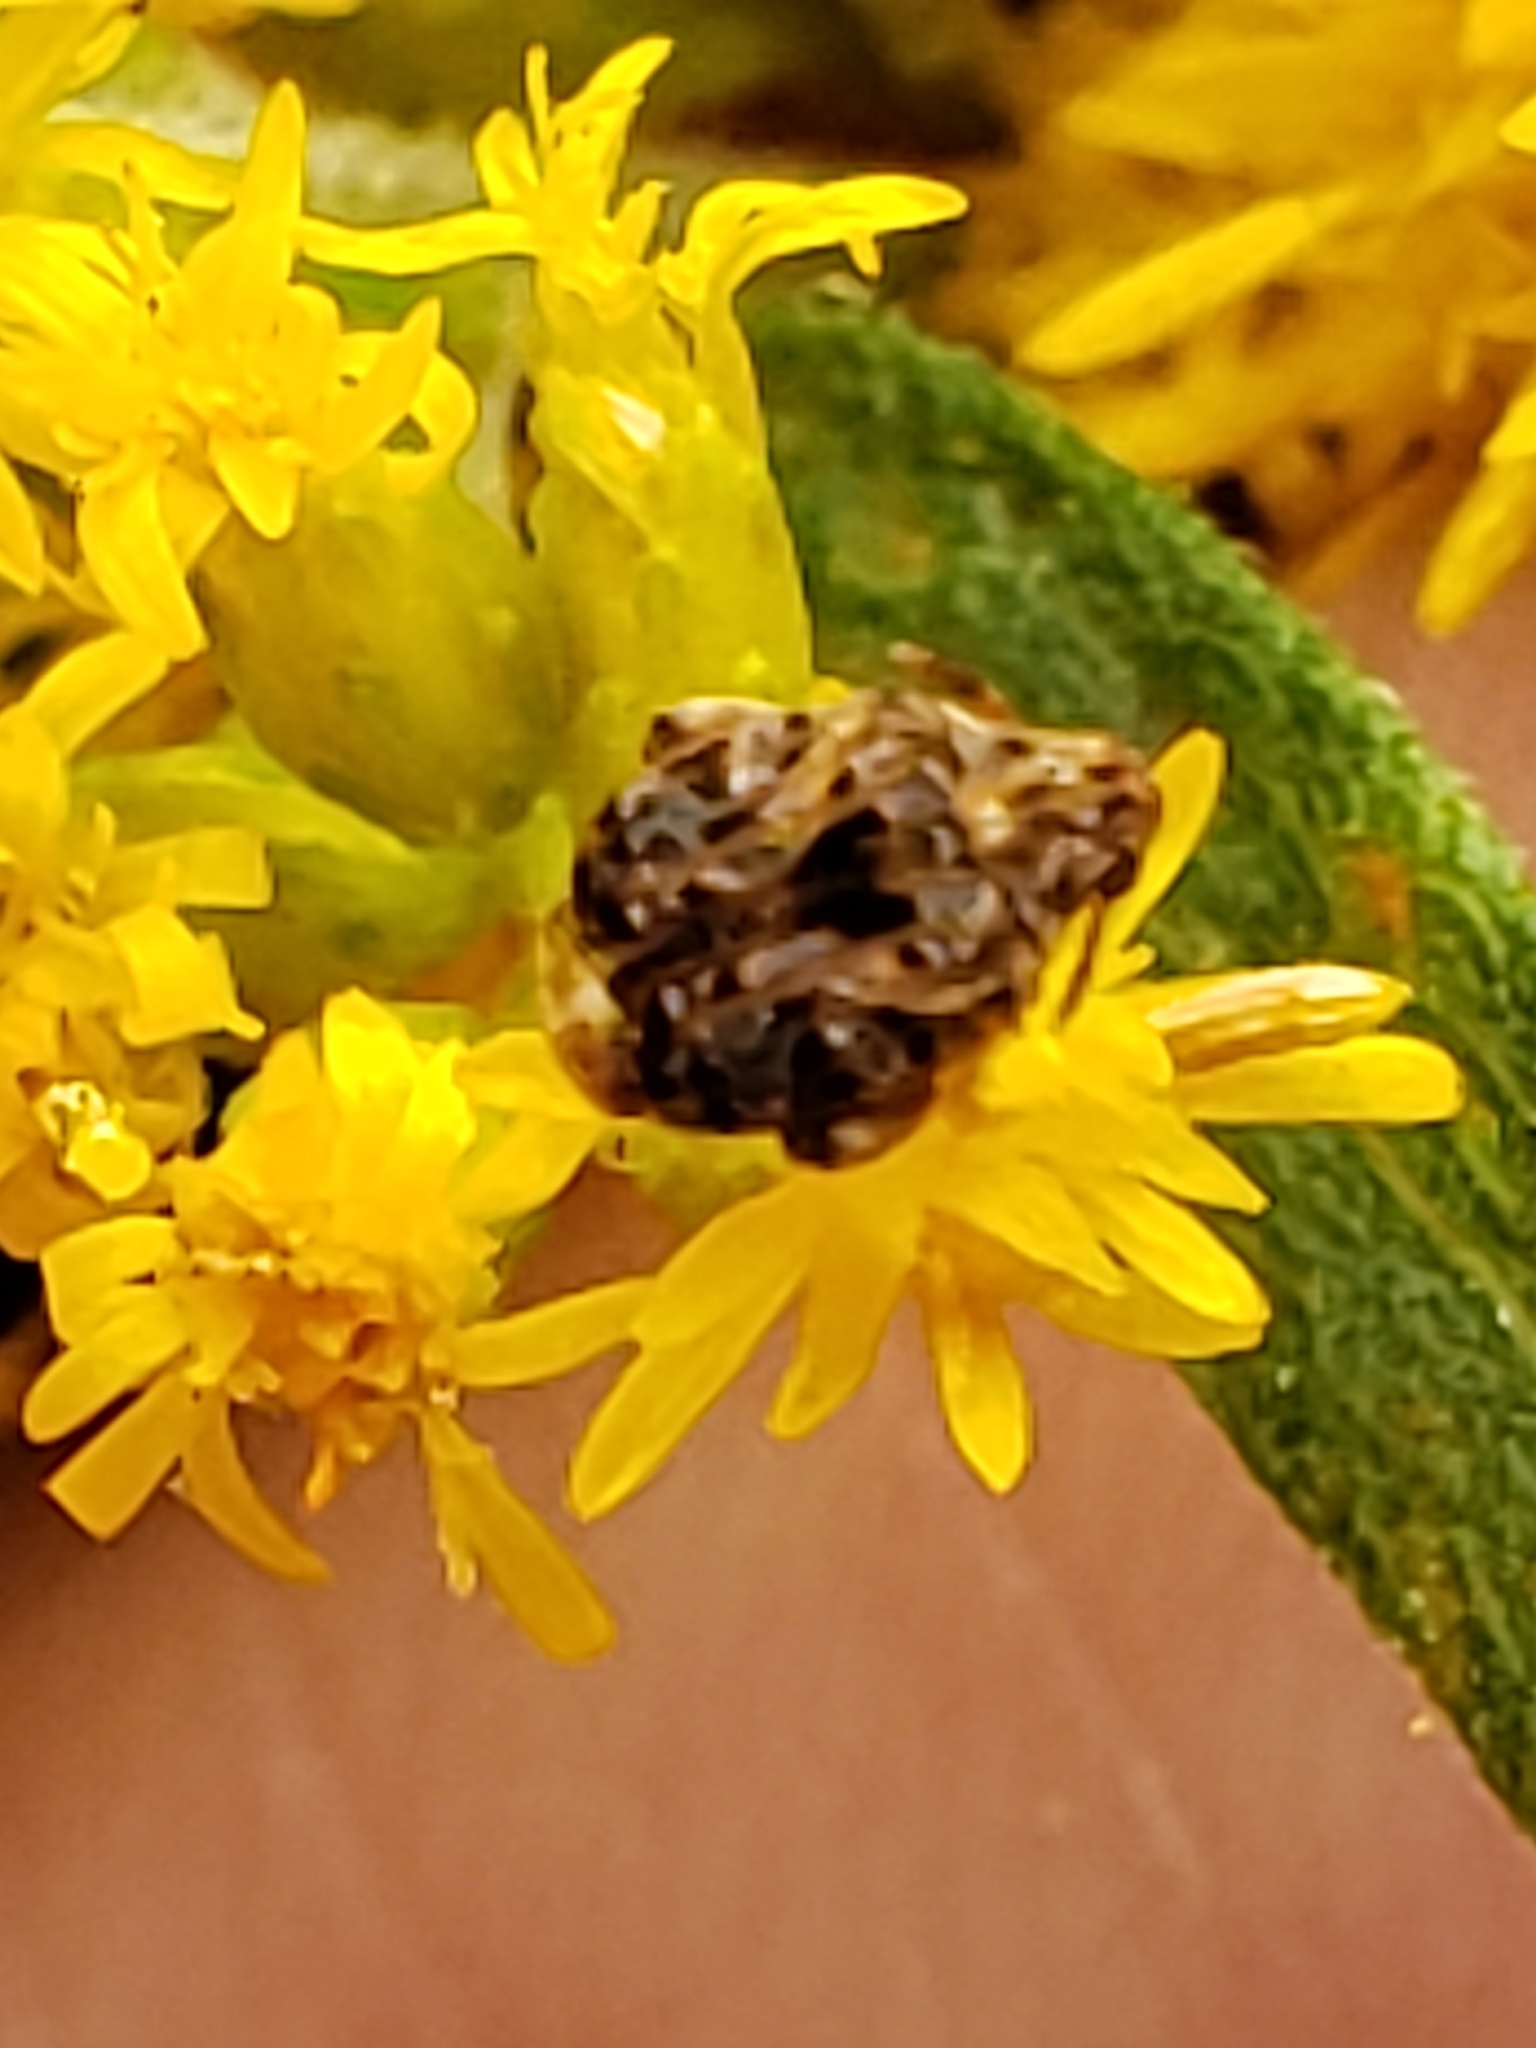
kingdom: Animalia
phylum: Arthropoda
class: Insecta
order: Coleoptera
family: Chrysomelidae
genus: Gibbobruchus
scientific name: Gibbobruchus mimus
